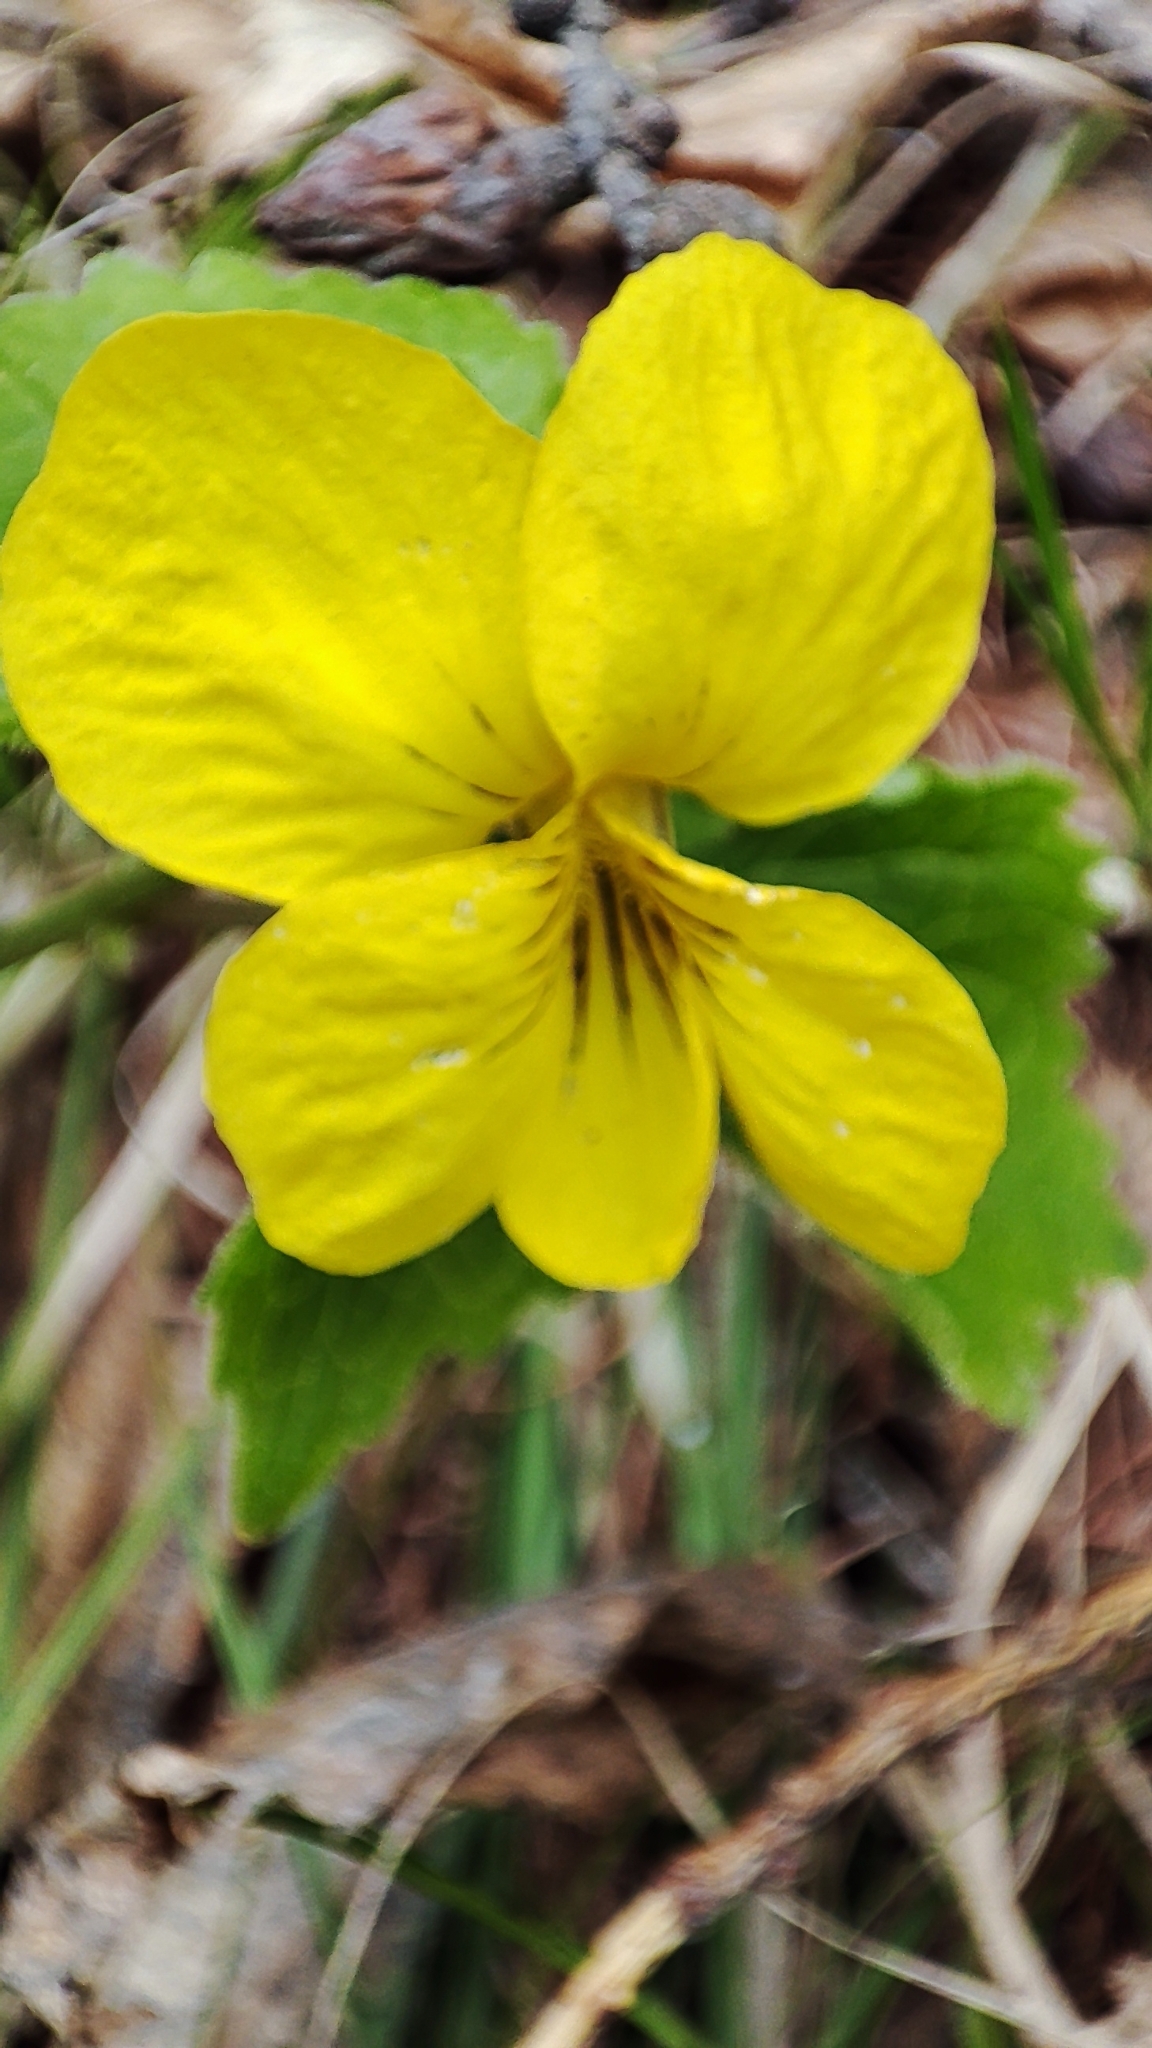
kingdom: Plantae
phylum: Tracheophyta
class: Magnoliopsida
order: Malpighiales
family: Violaceae
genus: Viola
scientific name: Viola uniflora
